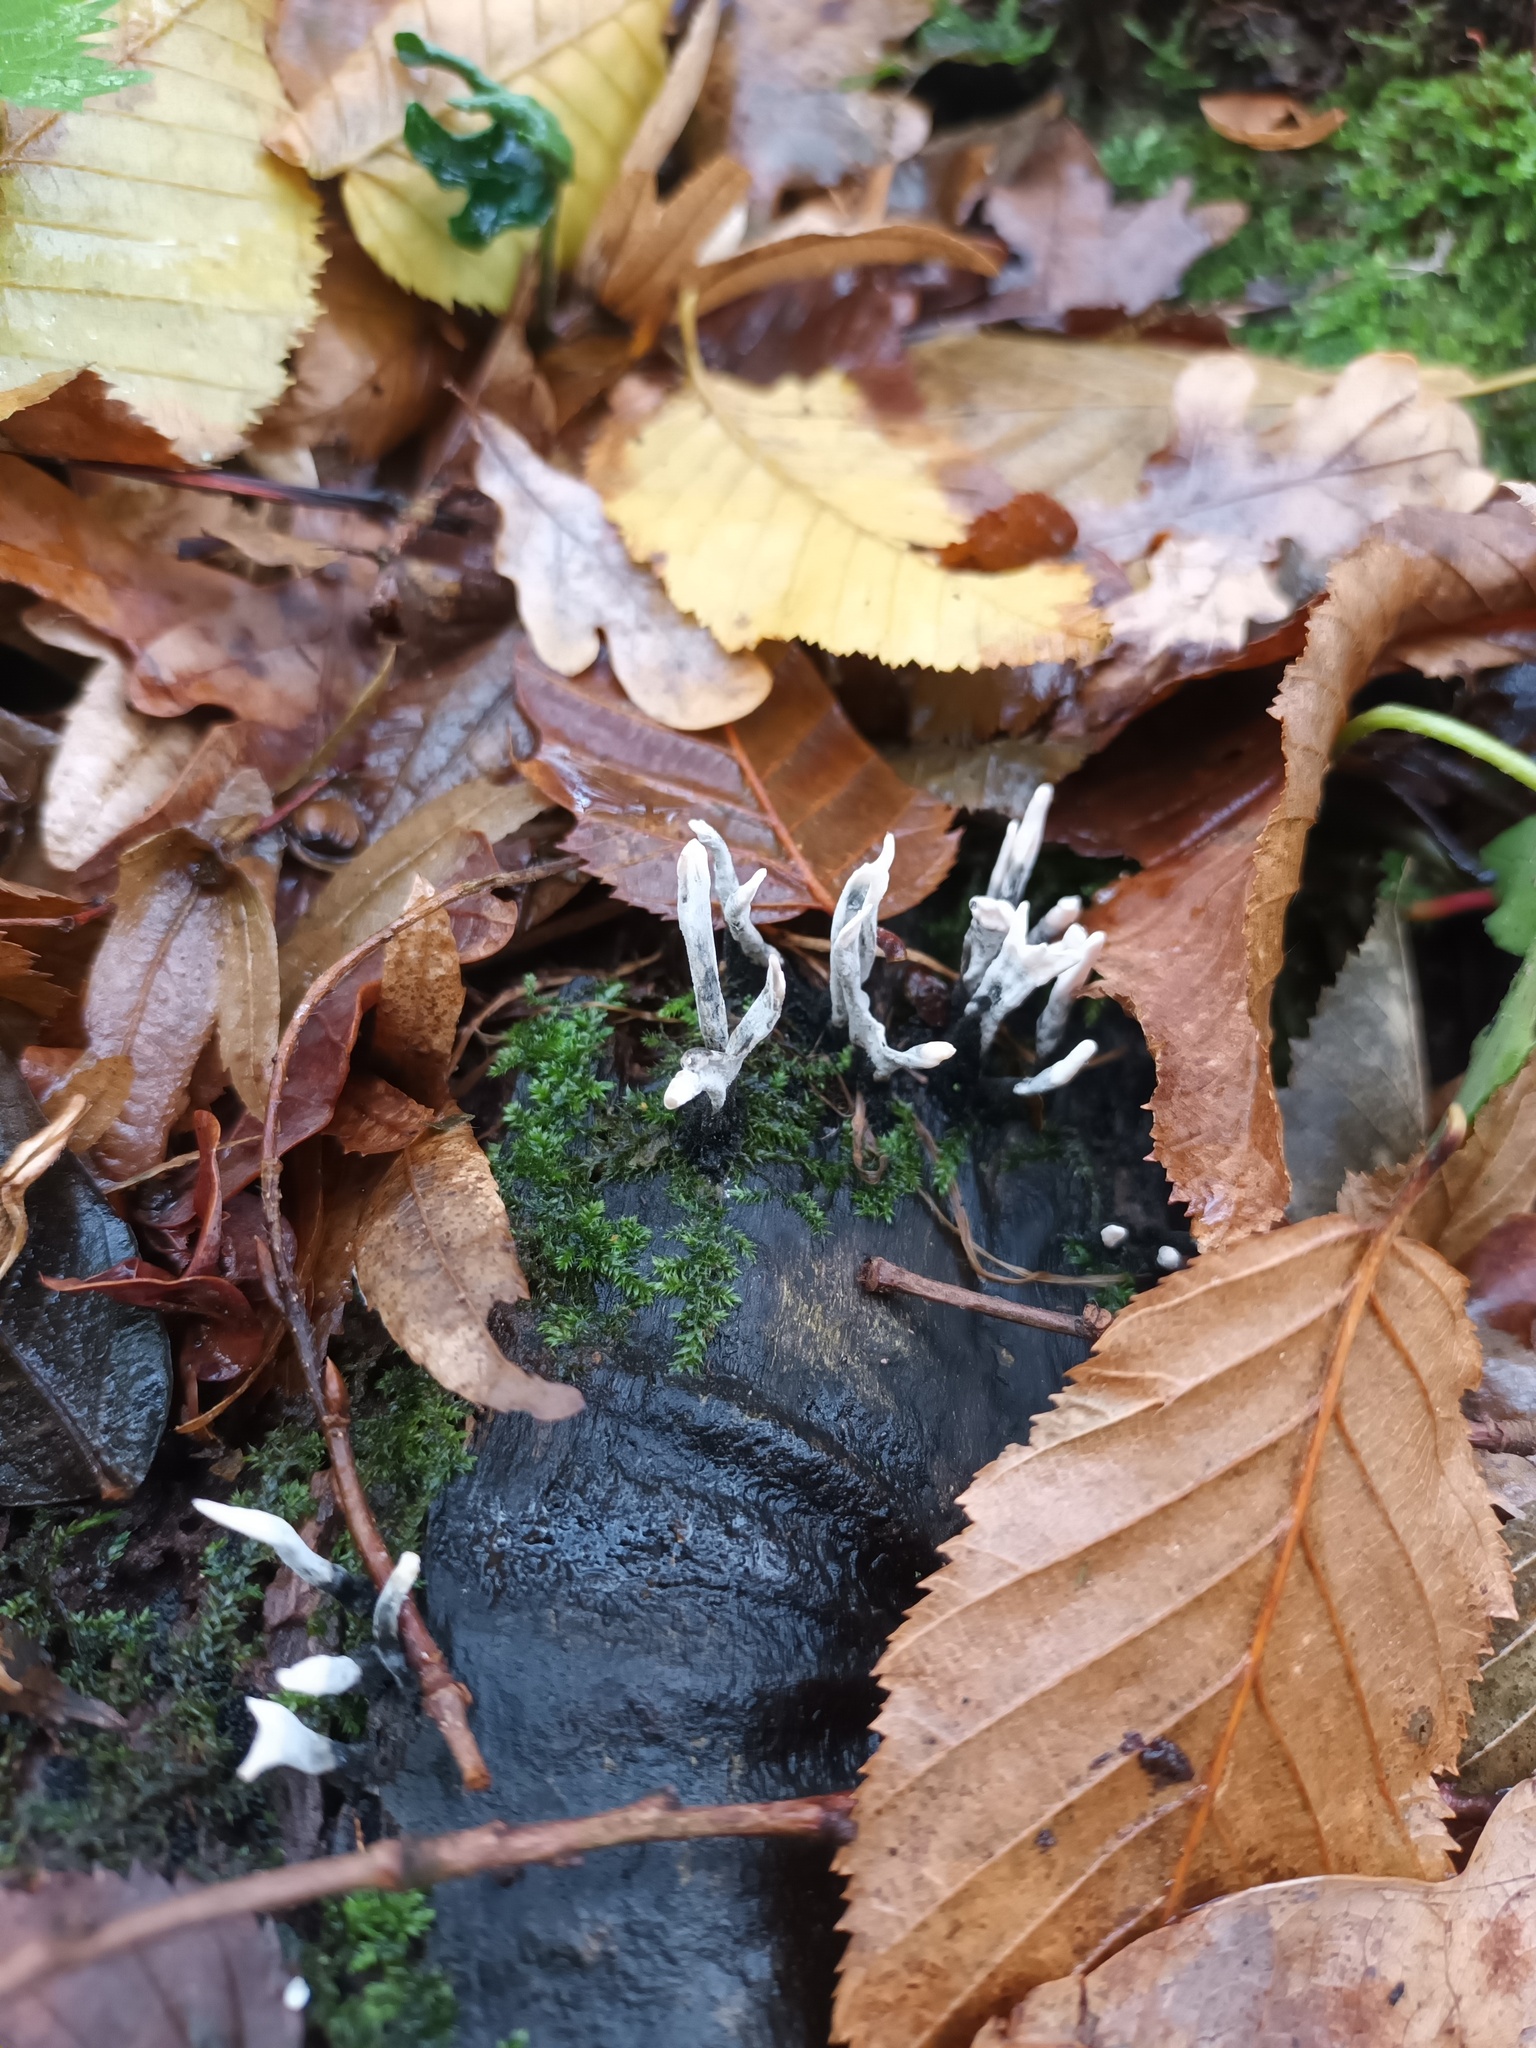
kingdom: Fungi
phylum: Ascomycota
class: Sordariomycetes
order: Xylariales
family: Xylariaceae
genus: Xylaria
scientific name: Xylaria hypoxylon
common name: Candle-snuff fungus
